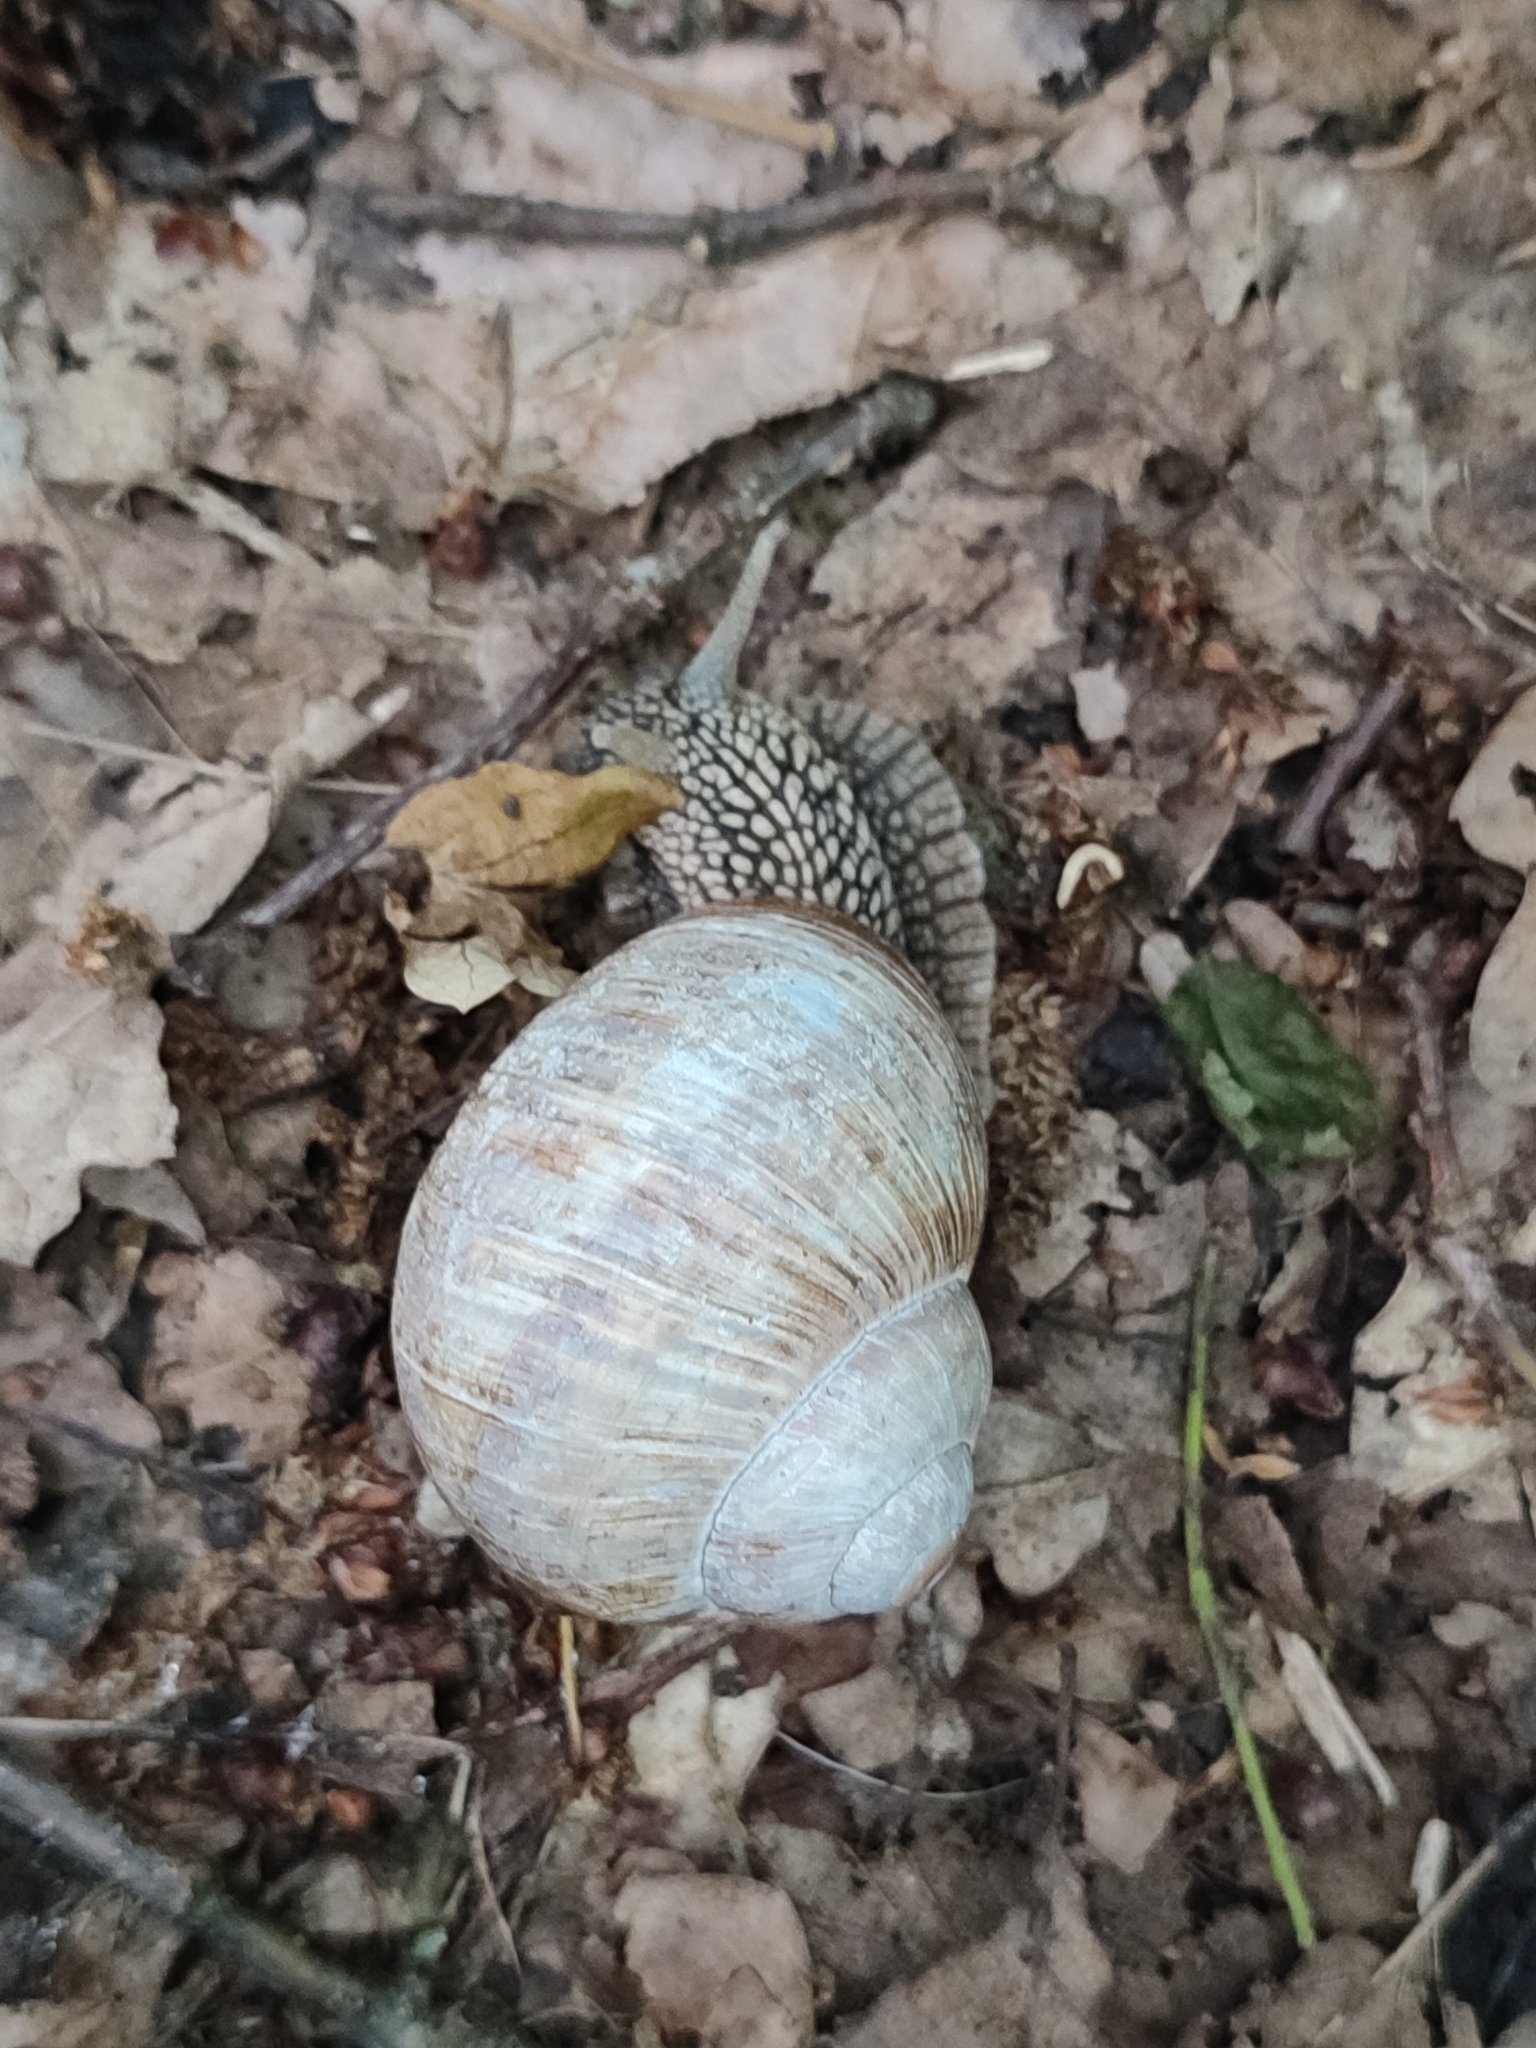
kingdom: Animalia
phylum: Mollusca
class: Gastropoda
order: Stylommatophora
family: Helicidae
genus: Helix
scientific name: Helix pomatia
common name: Roman snail
